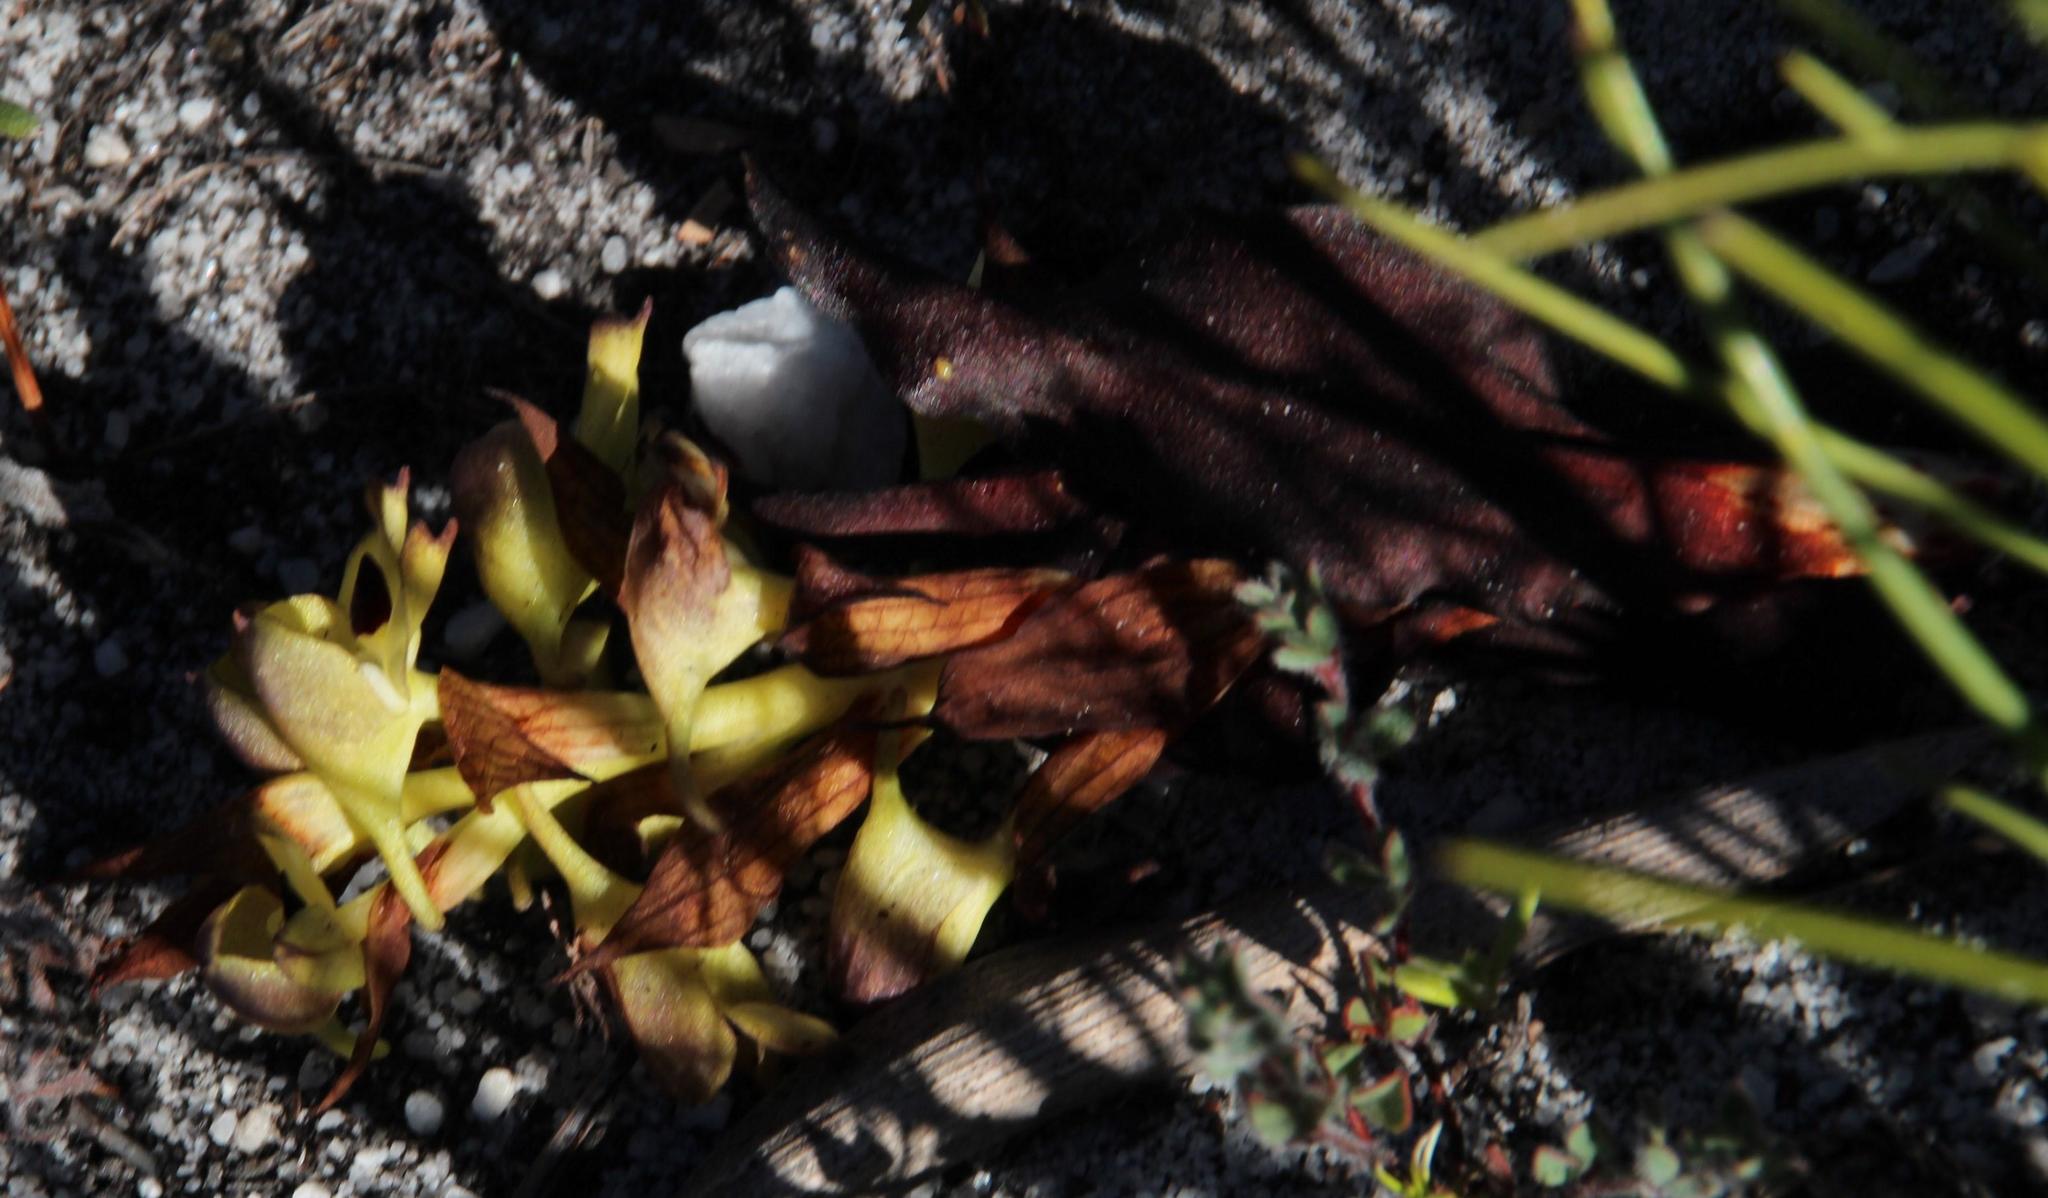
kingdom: Plantae
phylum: Tracheophyta
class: Liliopsida
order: Asparagales
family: Orchidaceae
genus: Disa
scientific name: Disa cornuta
